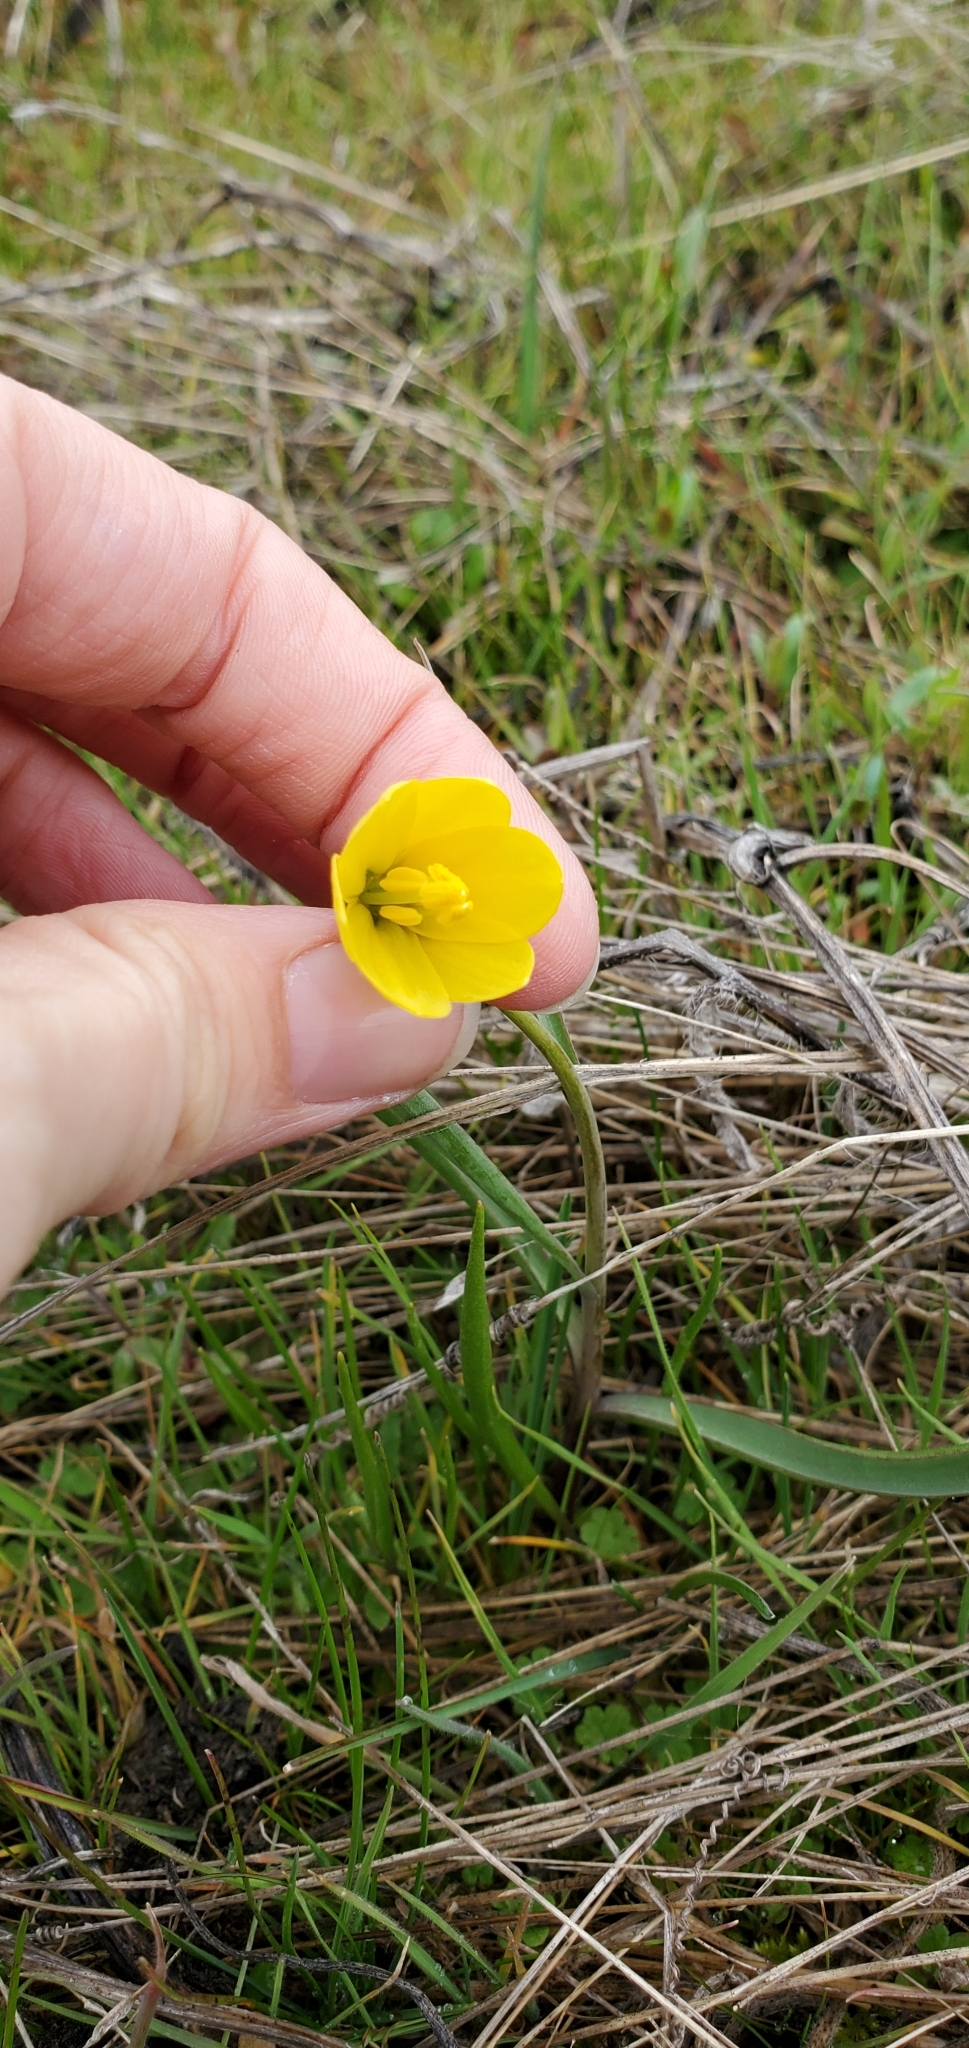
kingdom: Plantae
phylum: Tracheophyta
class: Liliopsida
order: Liliales
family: Liliaceae
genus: Fritillaria
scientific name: Fritillaria pudica
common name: Yellow fritillary
